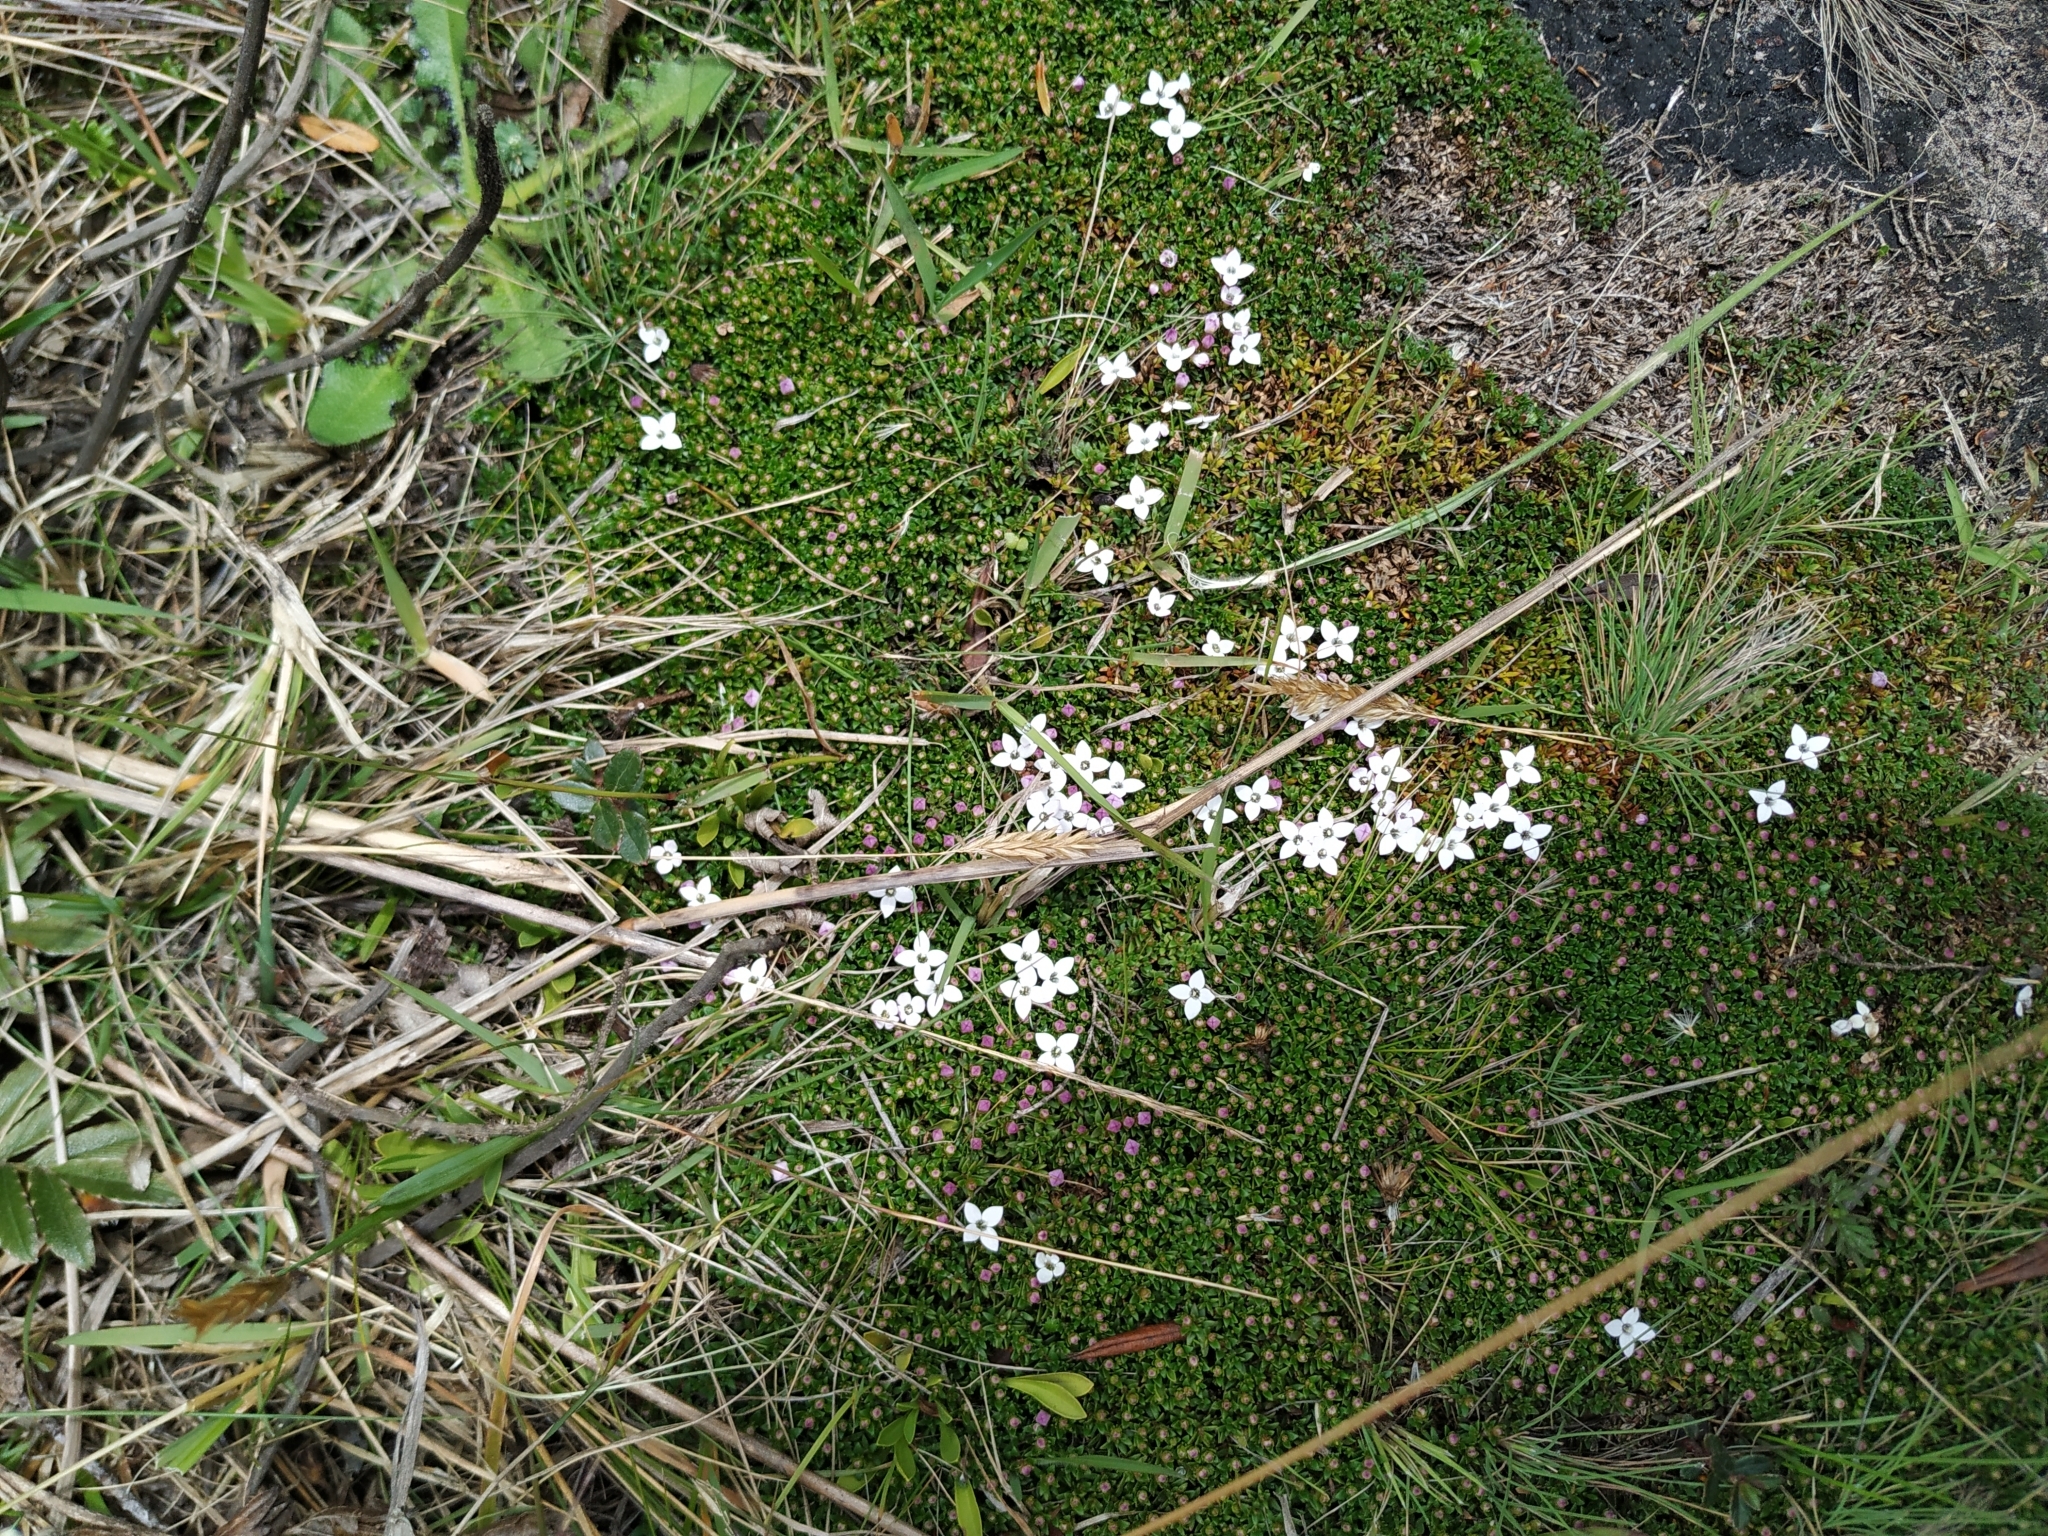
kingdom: Plantae
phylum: Tracheophyta
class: Magnoliopsida
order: Gentianales
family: Rubiaceae
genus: Arcytophyllum
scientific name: Arcytophyllum muticum
